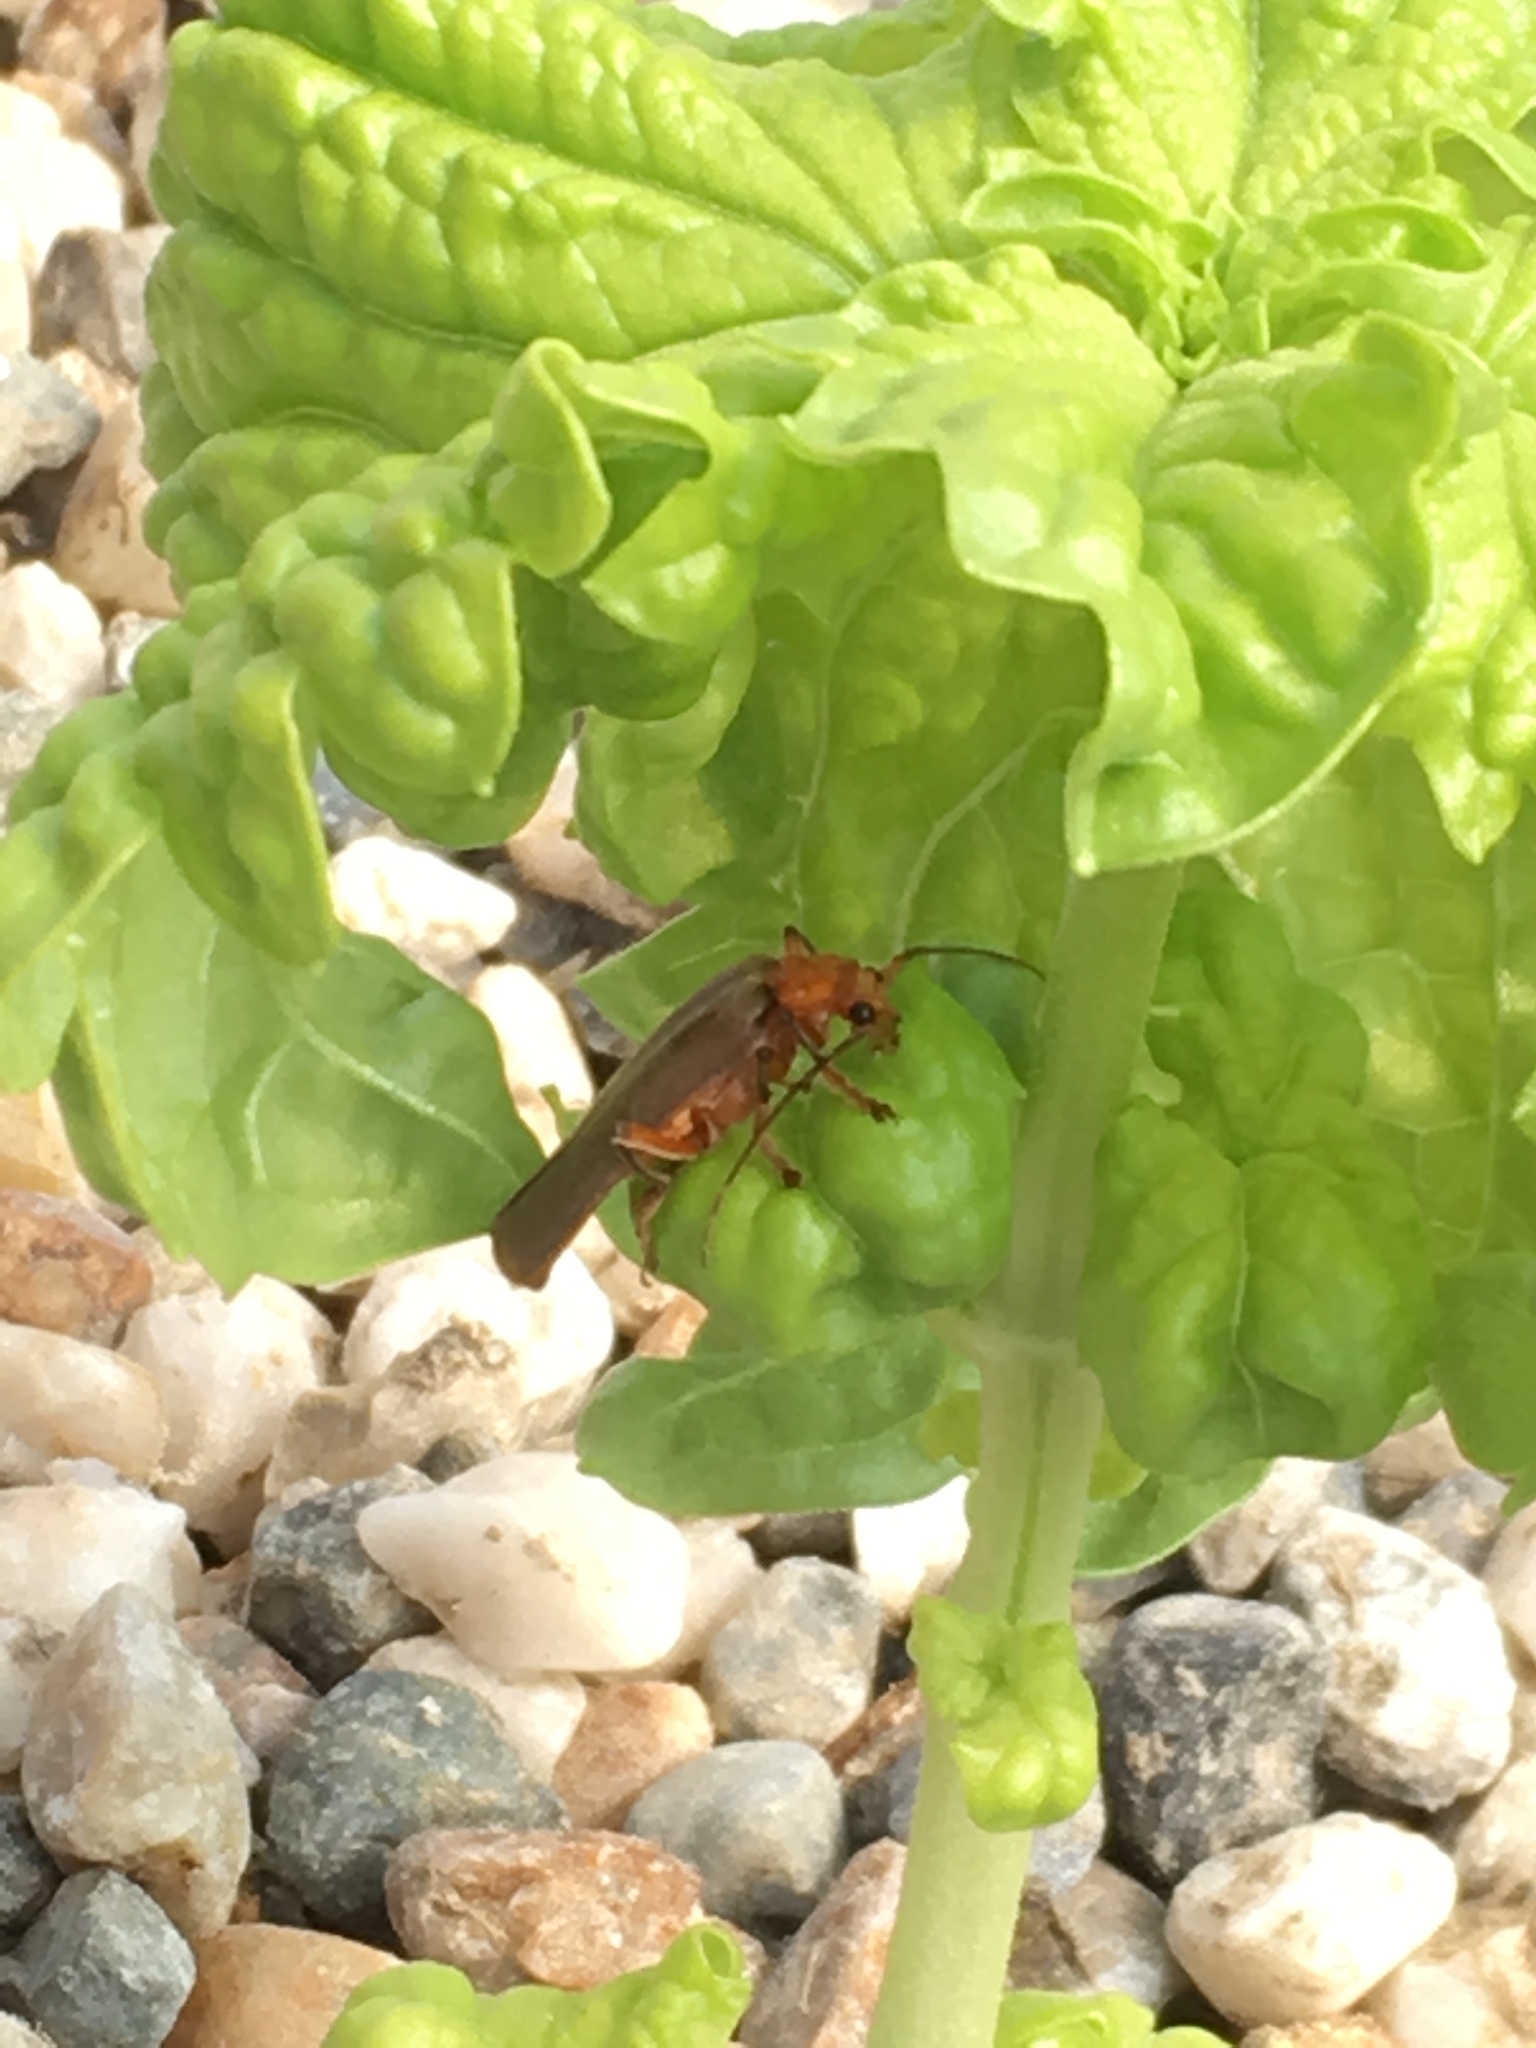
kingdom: Animalia
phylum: Arthropoda
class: Insecta
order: Coleoptera
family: Cantharidae
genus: Pacificanthia
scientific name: Pacificanthia consors
